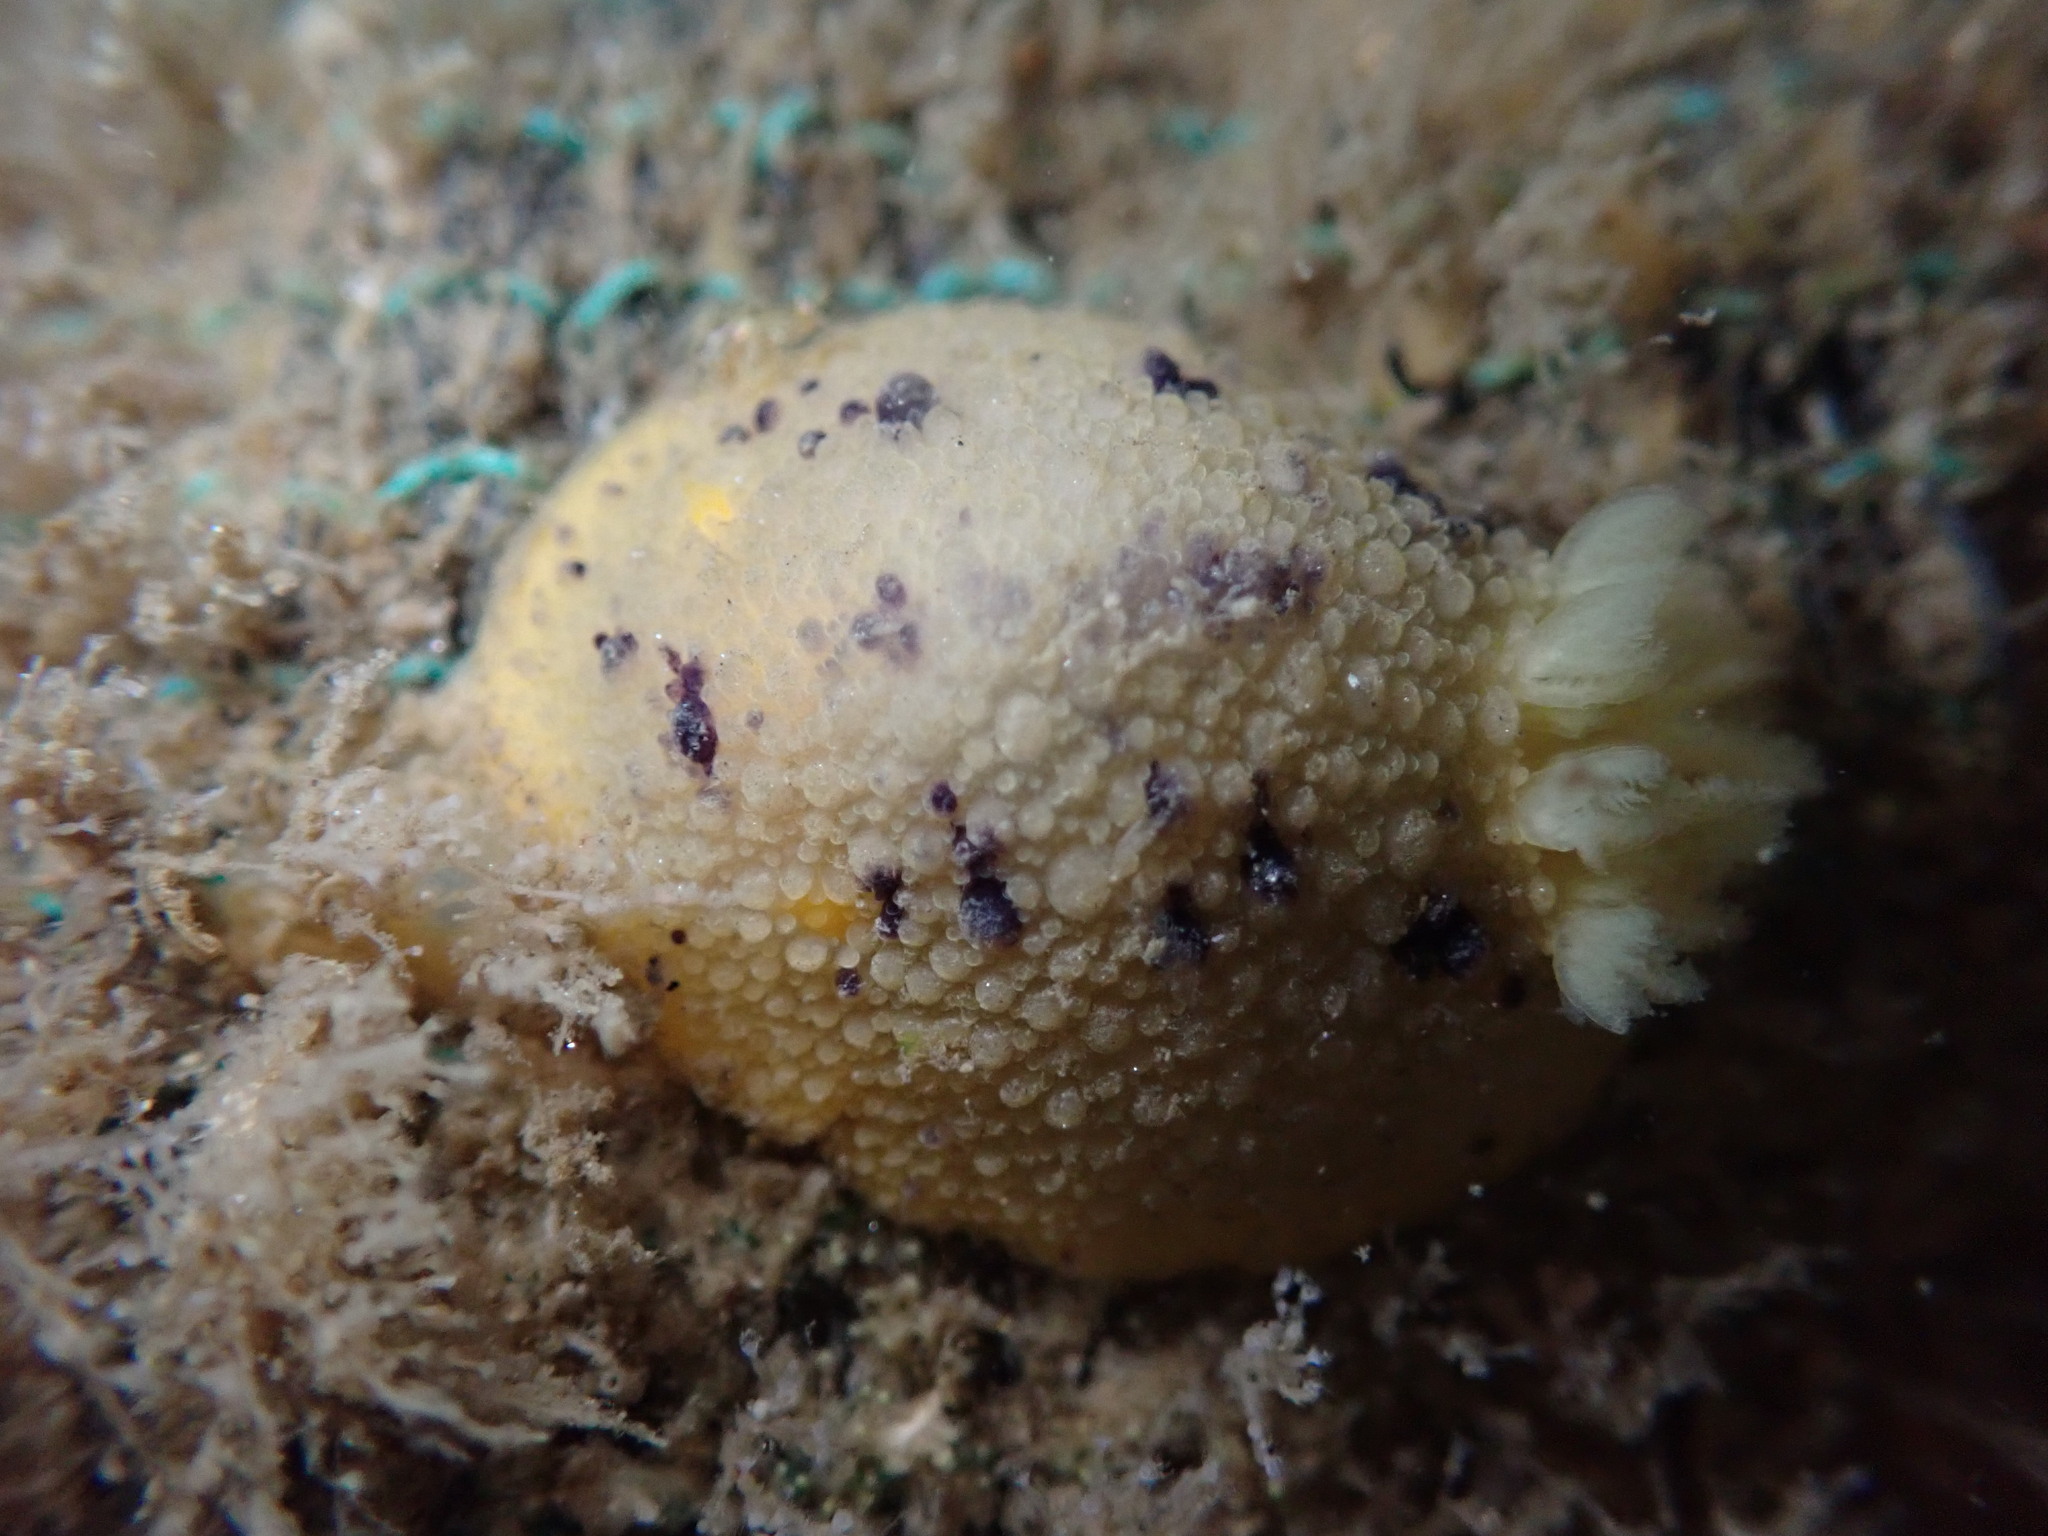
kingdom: Animalia
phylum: Mollusca
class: Gastropoda
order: Nudibranchia
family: Dorididae
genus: Doris
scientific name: Doris montereyensis
